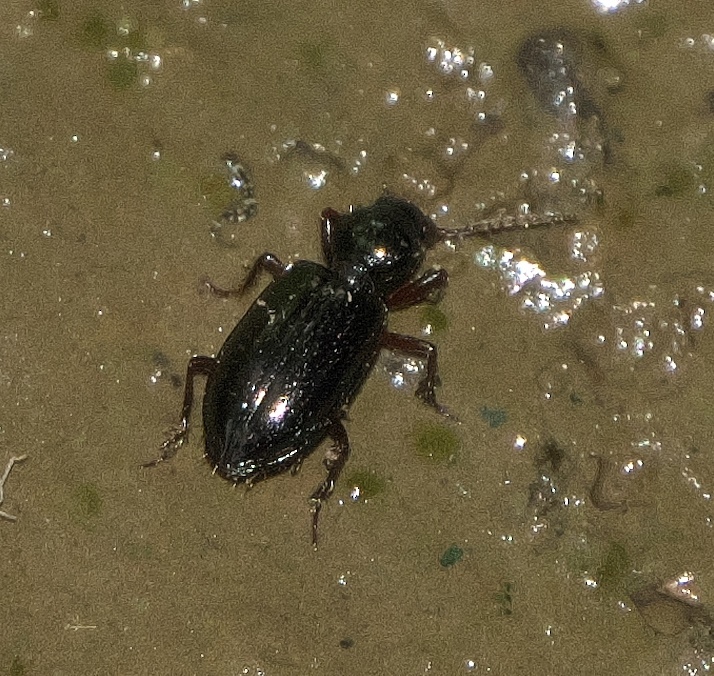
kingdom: Animalia
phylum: Arthropoda
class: Insecta
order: Coleoptera
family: Carabidae
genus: Semiardistomis
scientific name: Semiardistomis viridis
